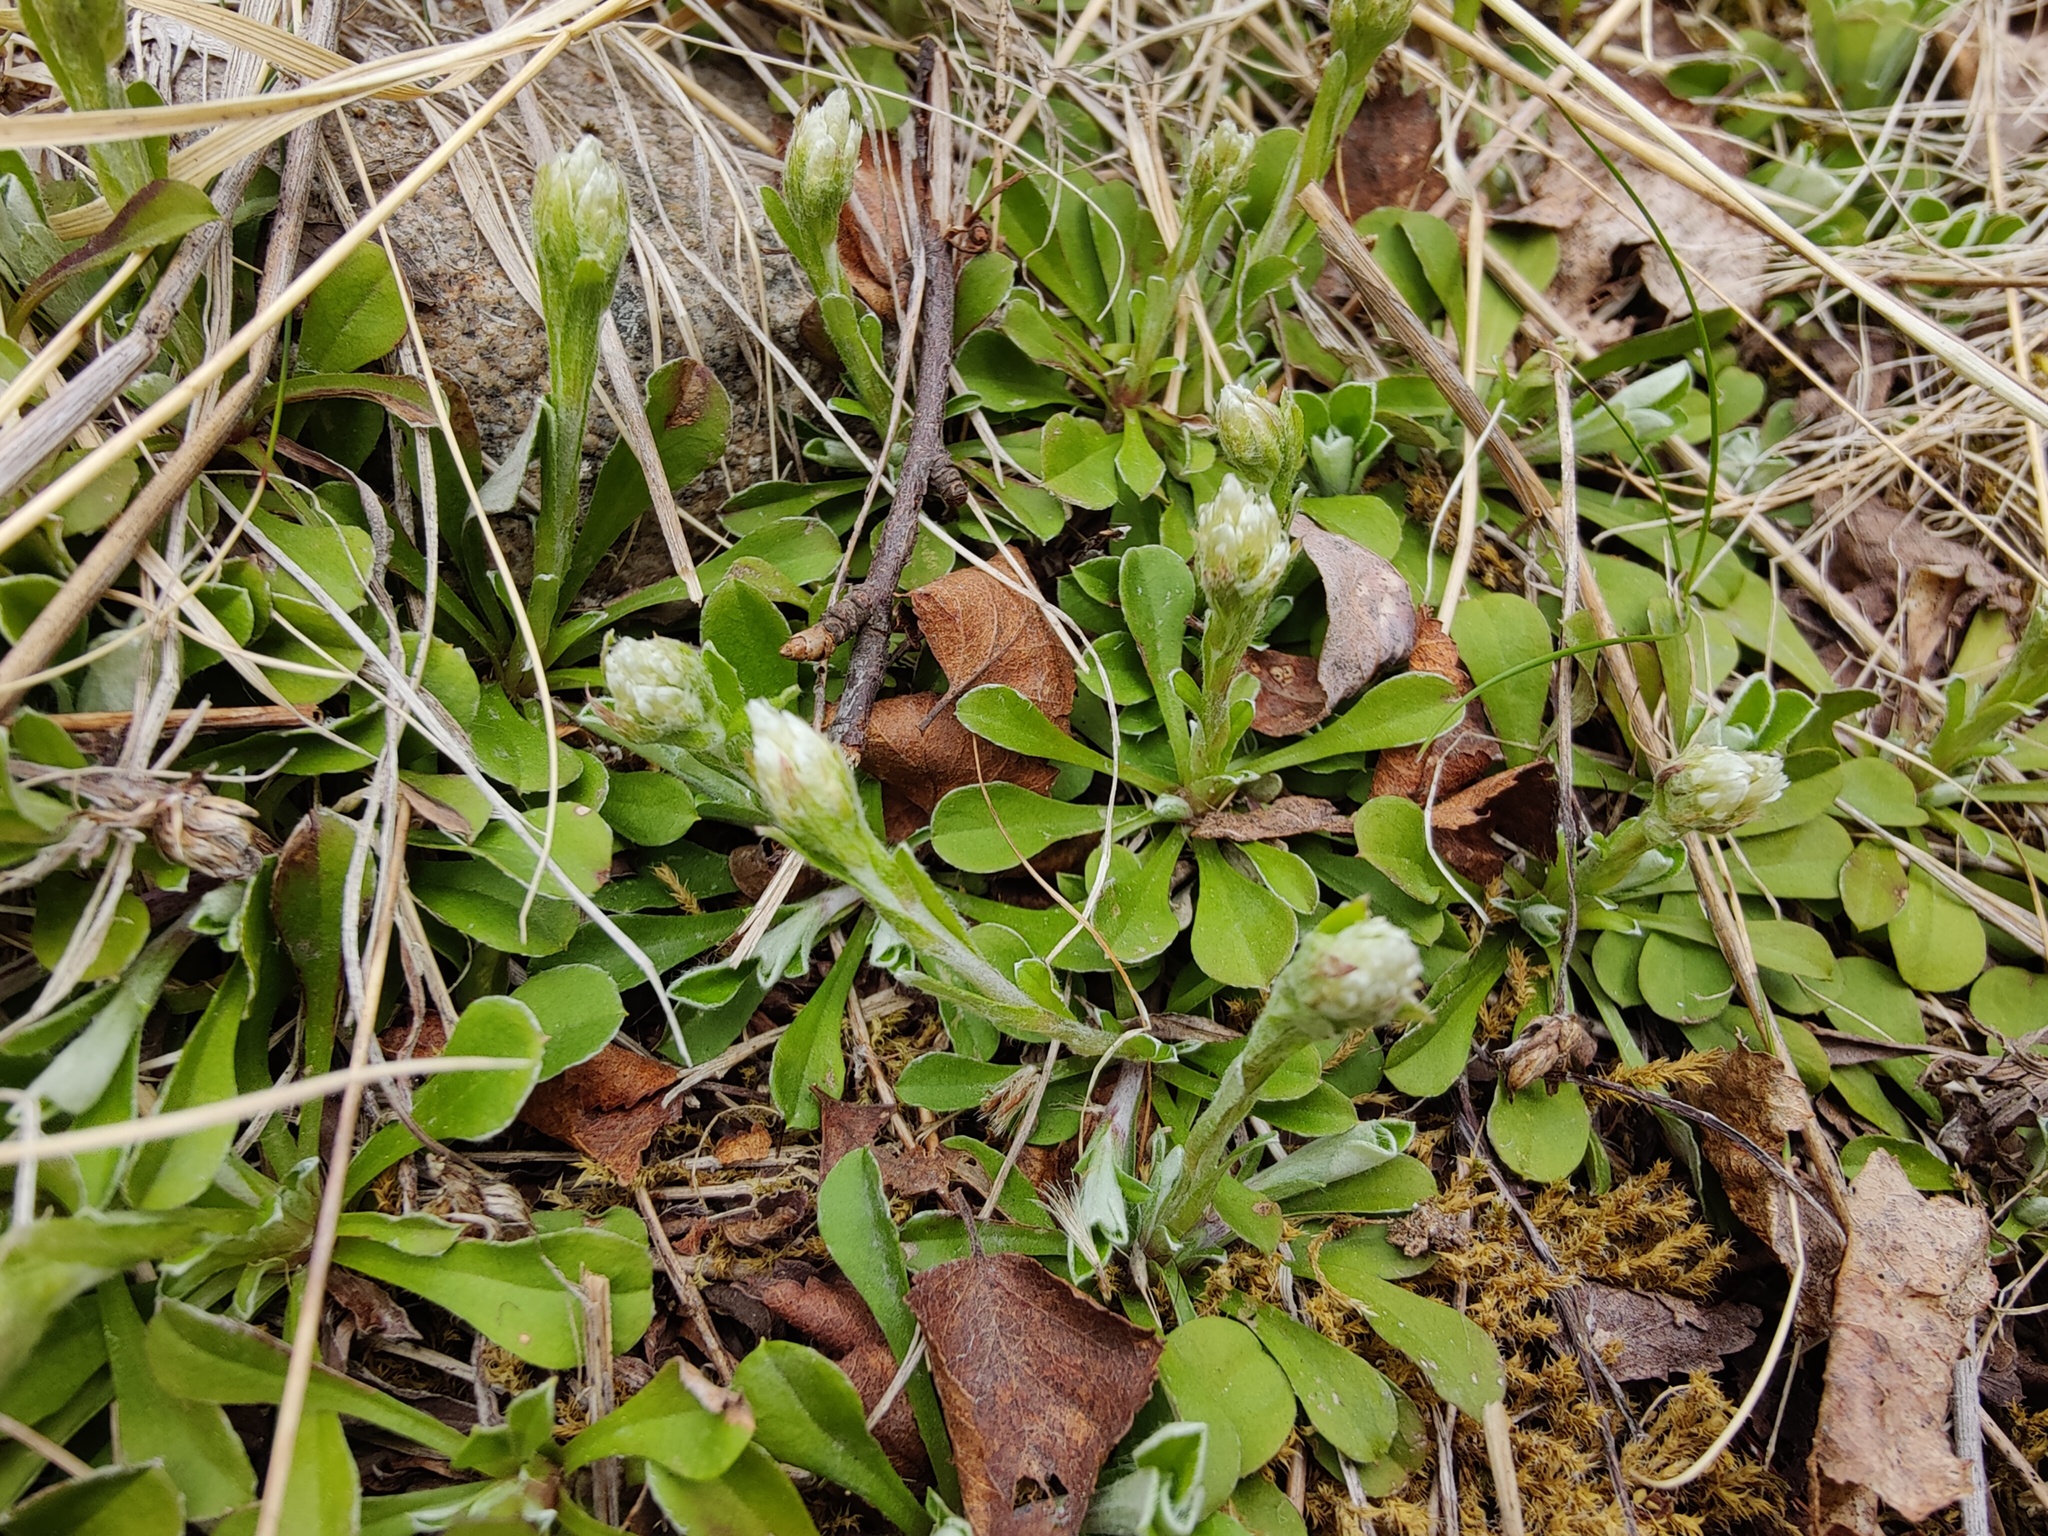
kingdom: Plantae
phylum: Tracheophyta
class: Magnoliopsida
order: Asterales
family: Asteraceae
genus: Antennaria
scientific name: Antennaria dioica
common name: Mountain everlasting
